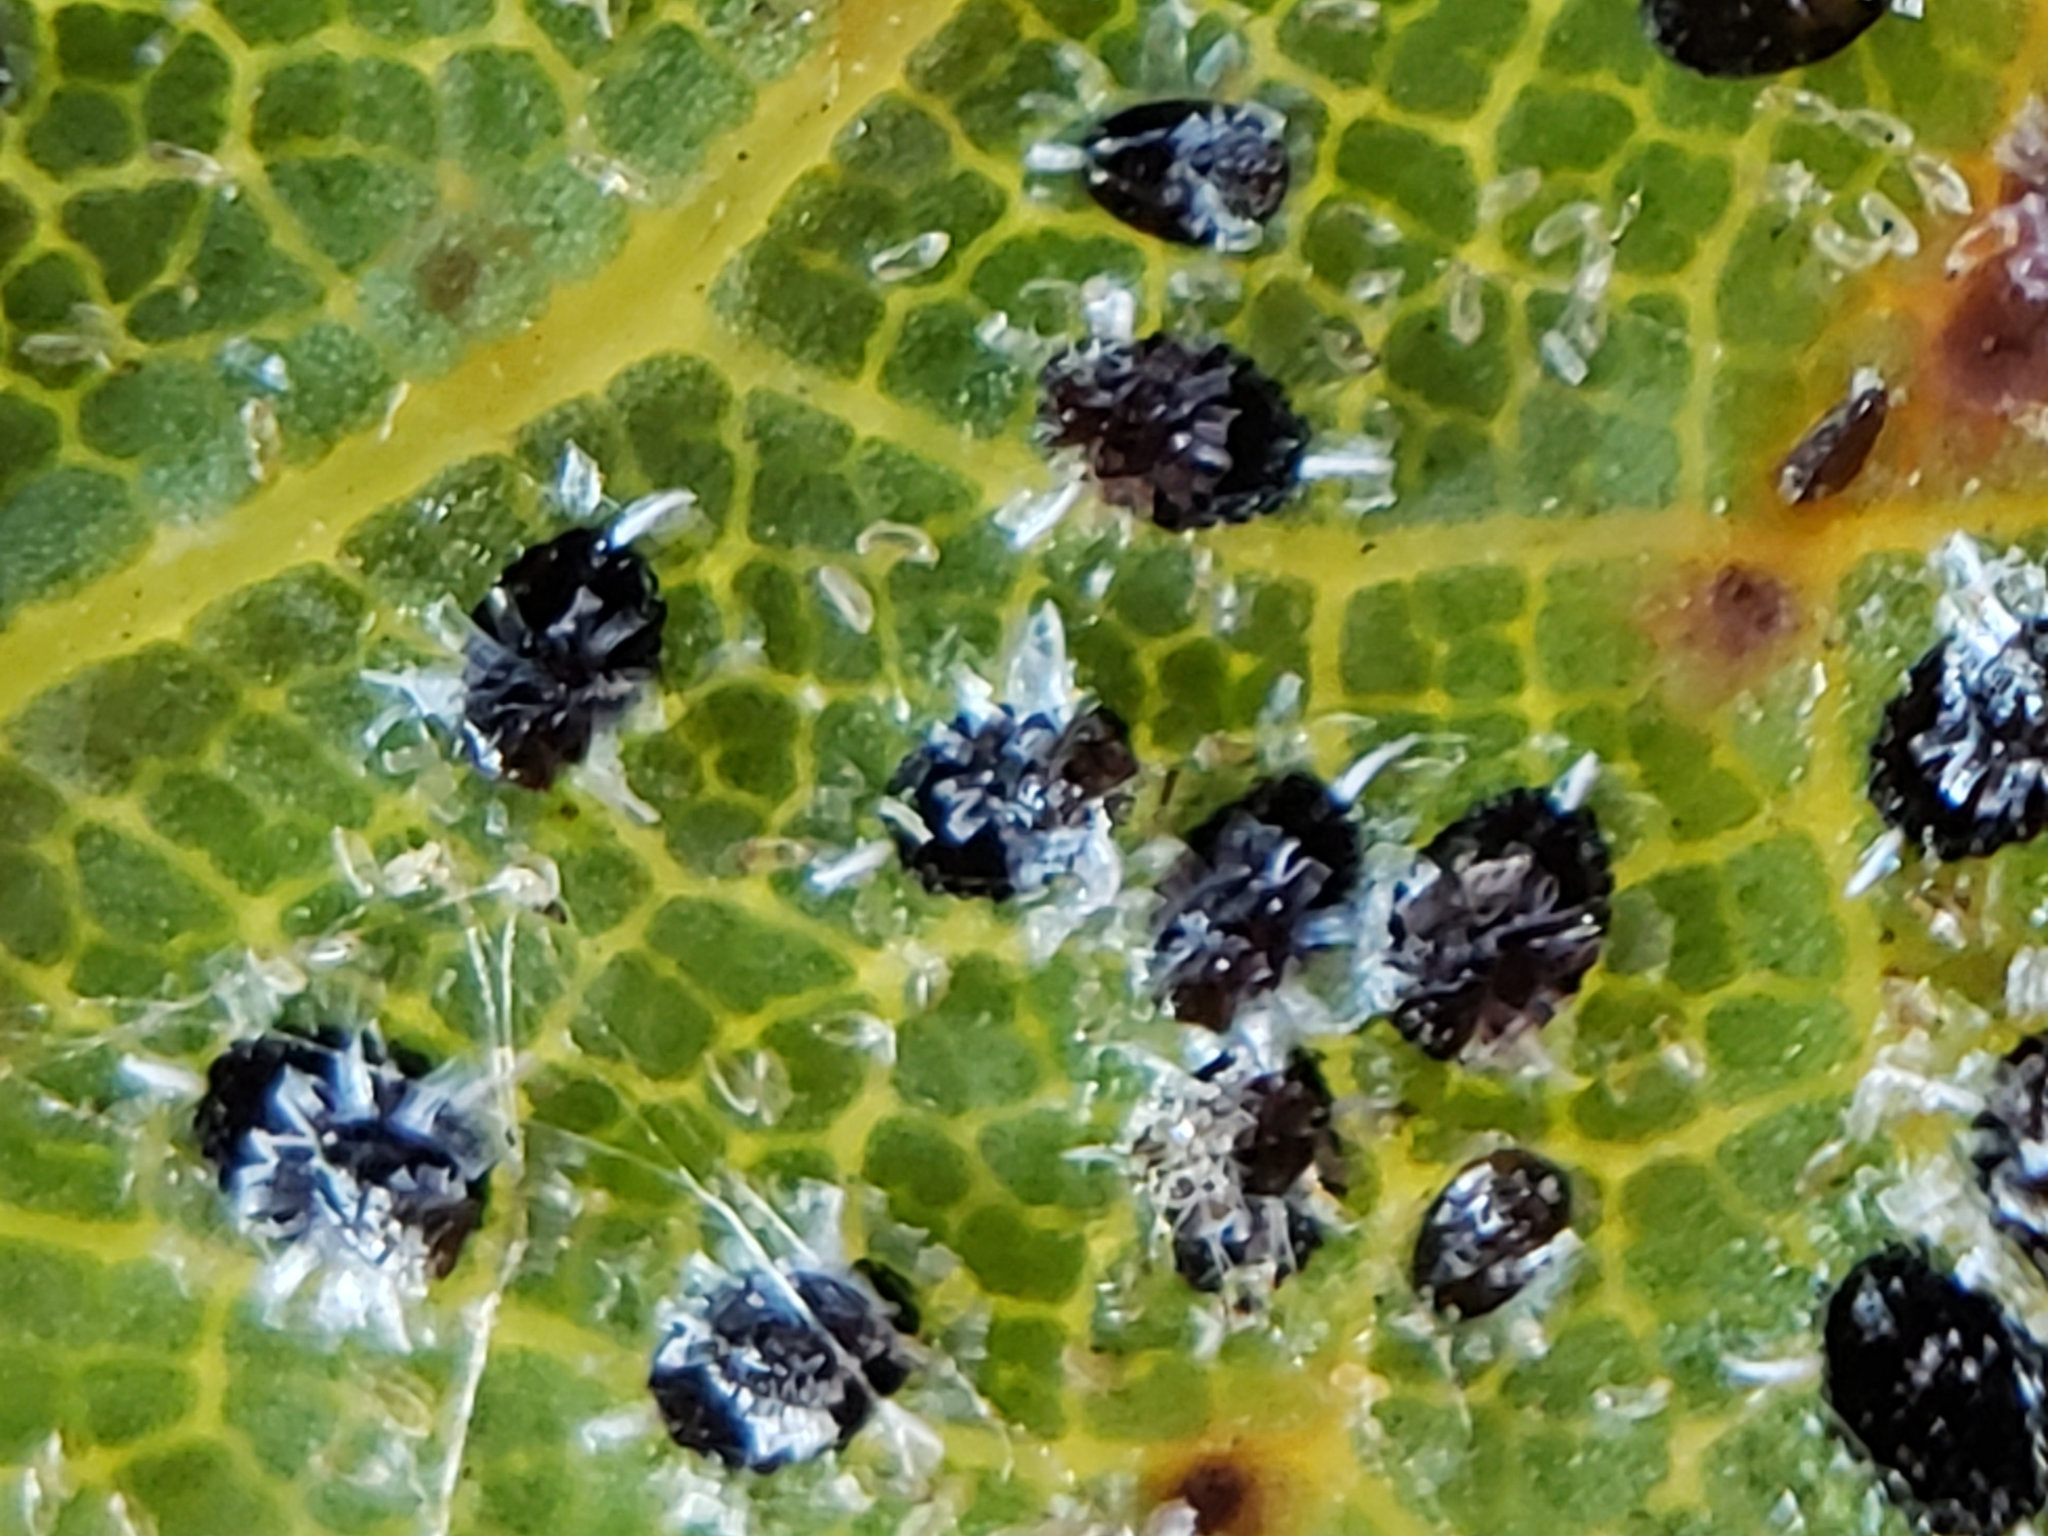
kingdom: Animalia
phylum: Arthropoda
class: Insecta
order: Hemiptera
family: Aleyrodidae
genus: Aleuroplatus
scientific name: Aleuroplatus gelatinosus
